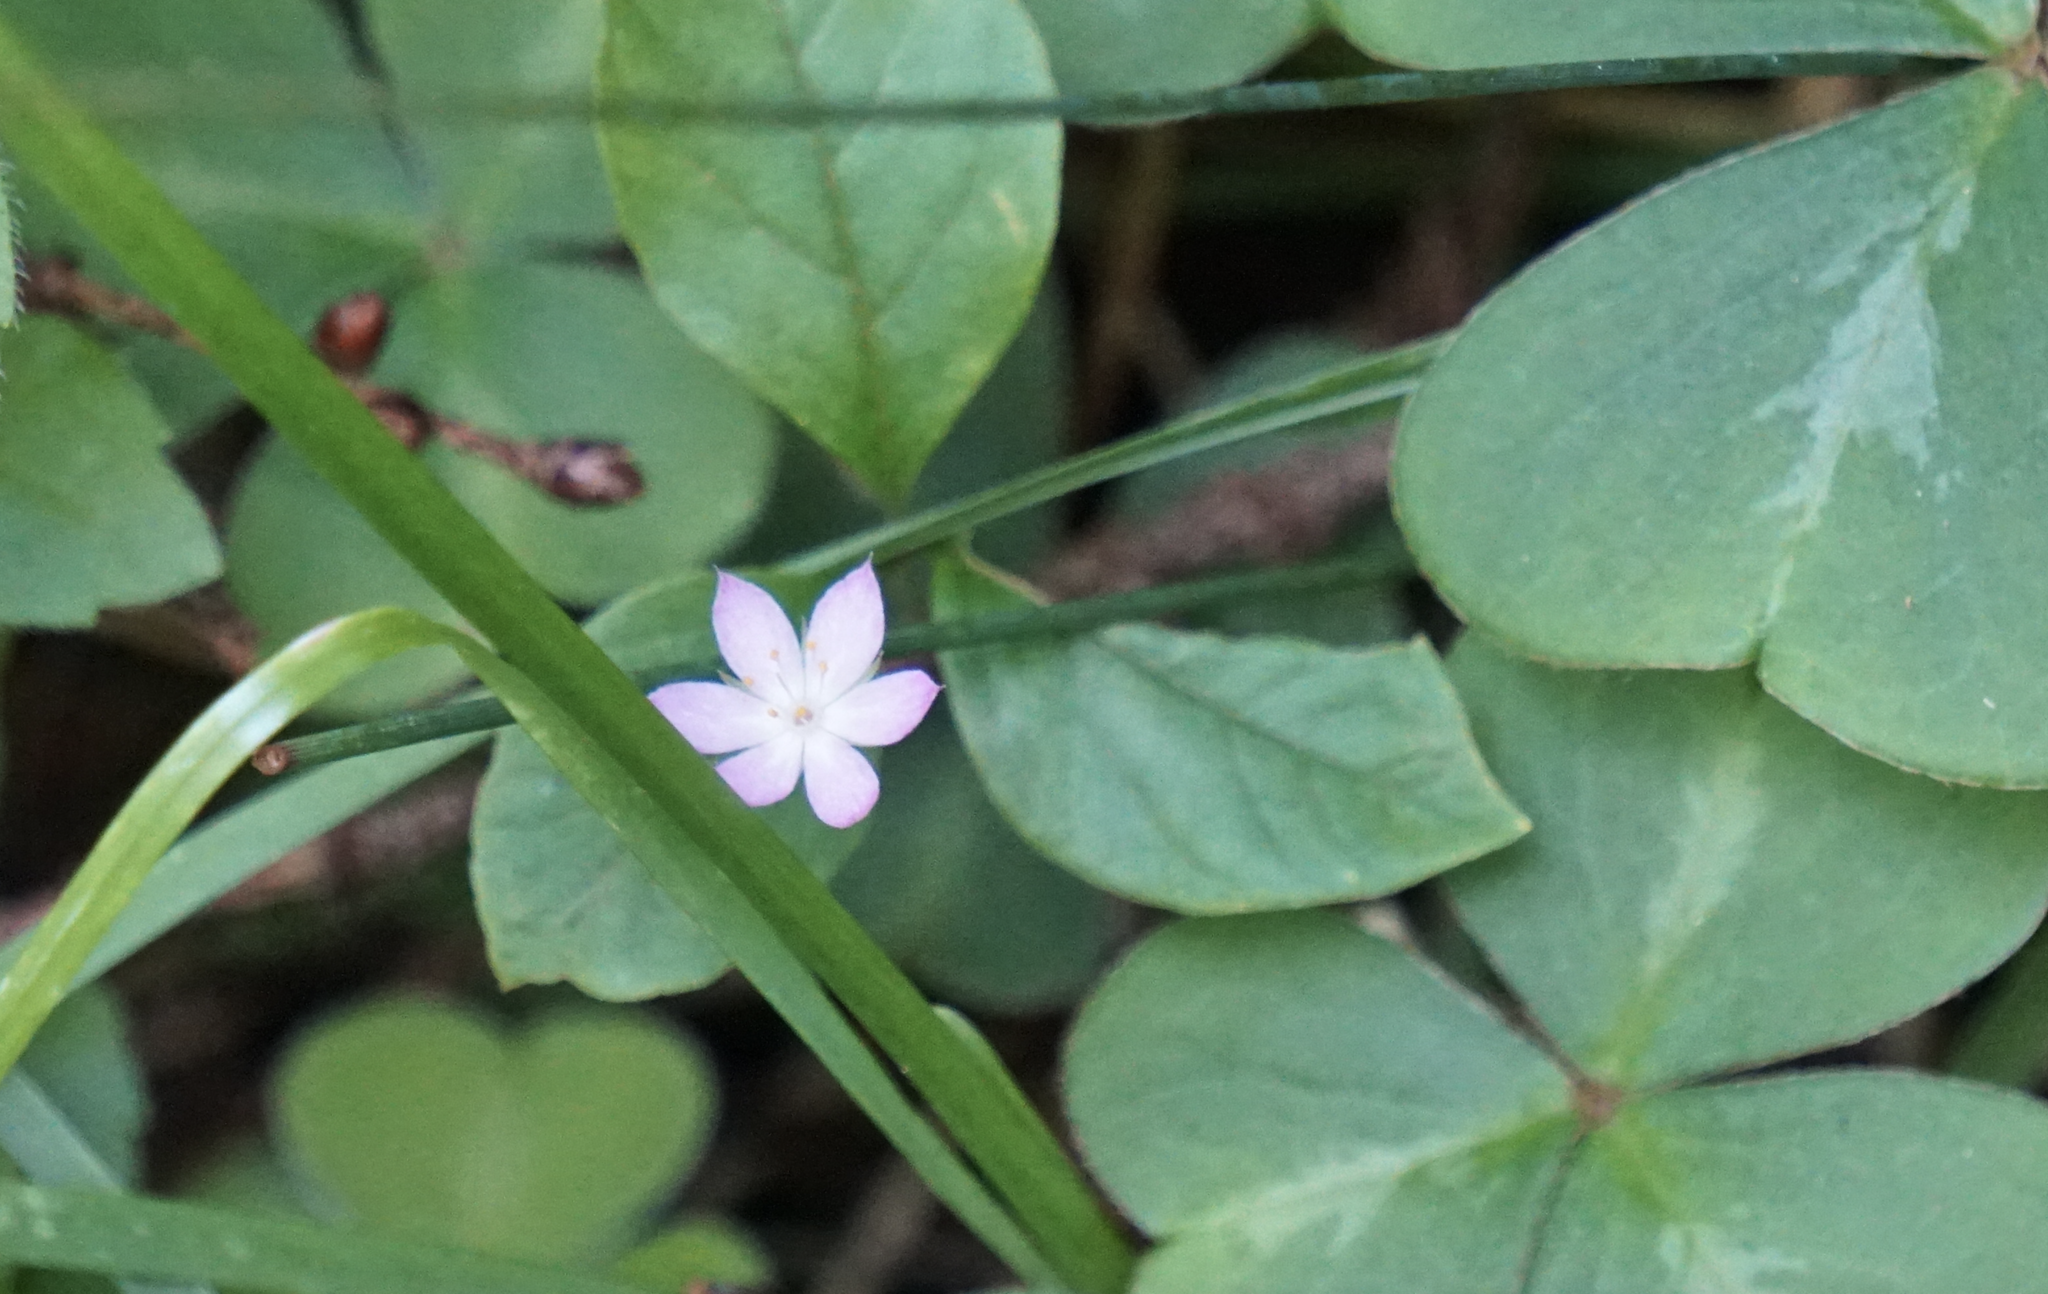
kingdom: Plantae
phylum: Tracheophyta
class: Magnoliopsida
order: Ericales
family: Primulaceae
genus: Lysimachia
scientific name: Lysimachia latifolia
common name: Pacific starflower
